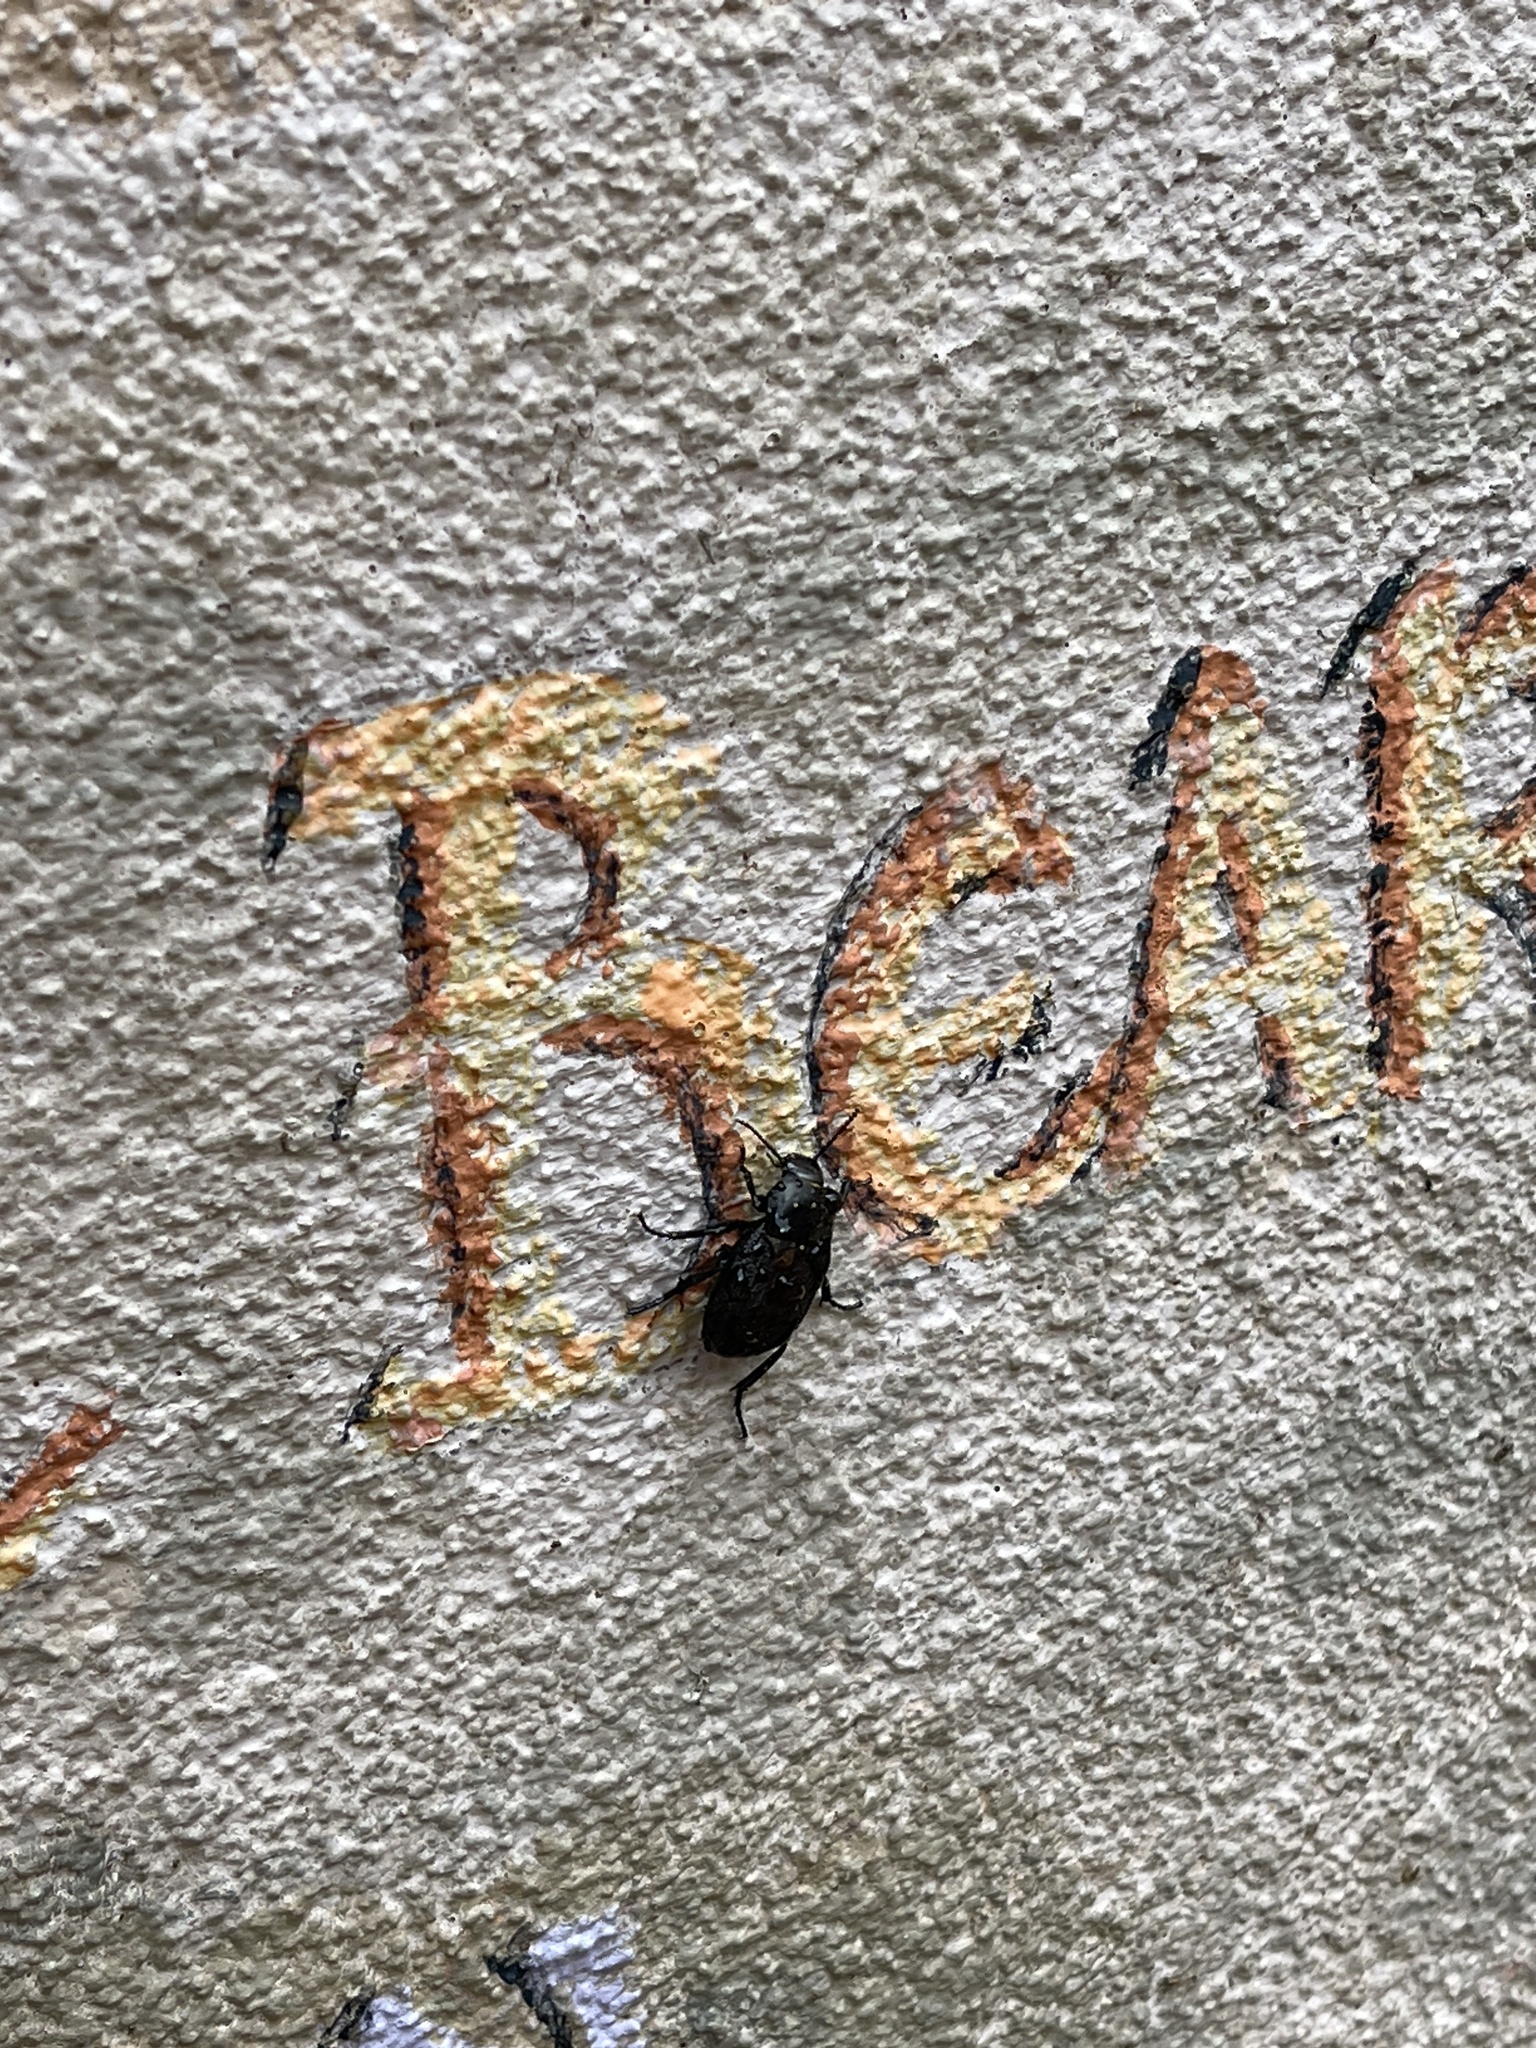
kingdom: Animalia
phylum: Arthropoda
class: Insecta
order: Coleoptera
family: Tenebrionidae
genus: Eleodes
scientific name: Eleodes tricostata
